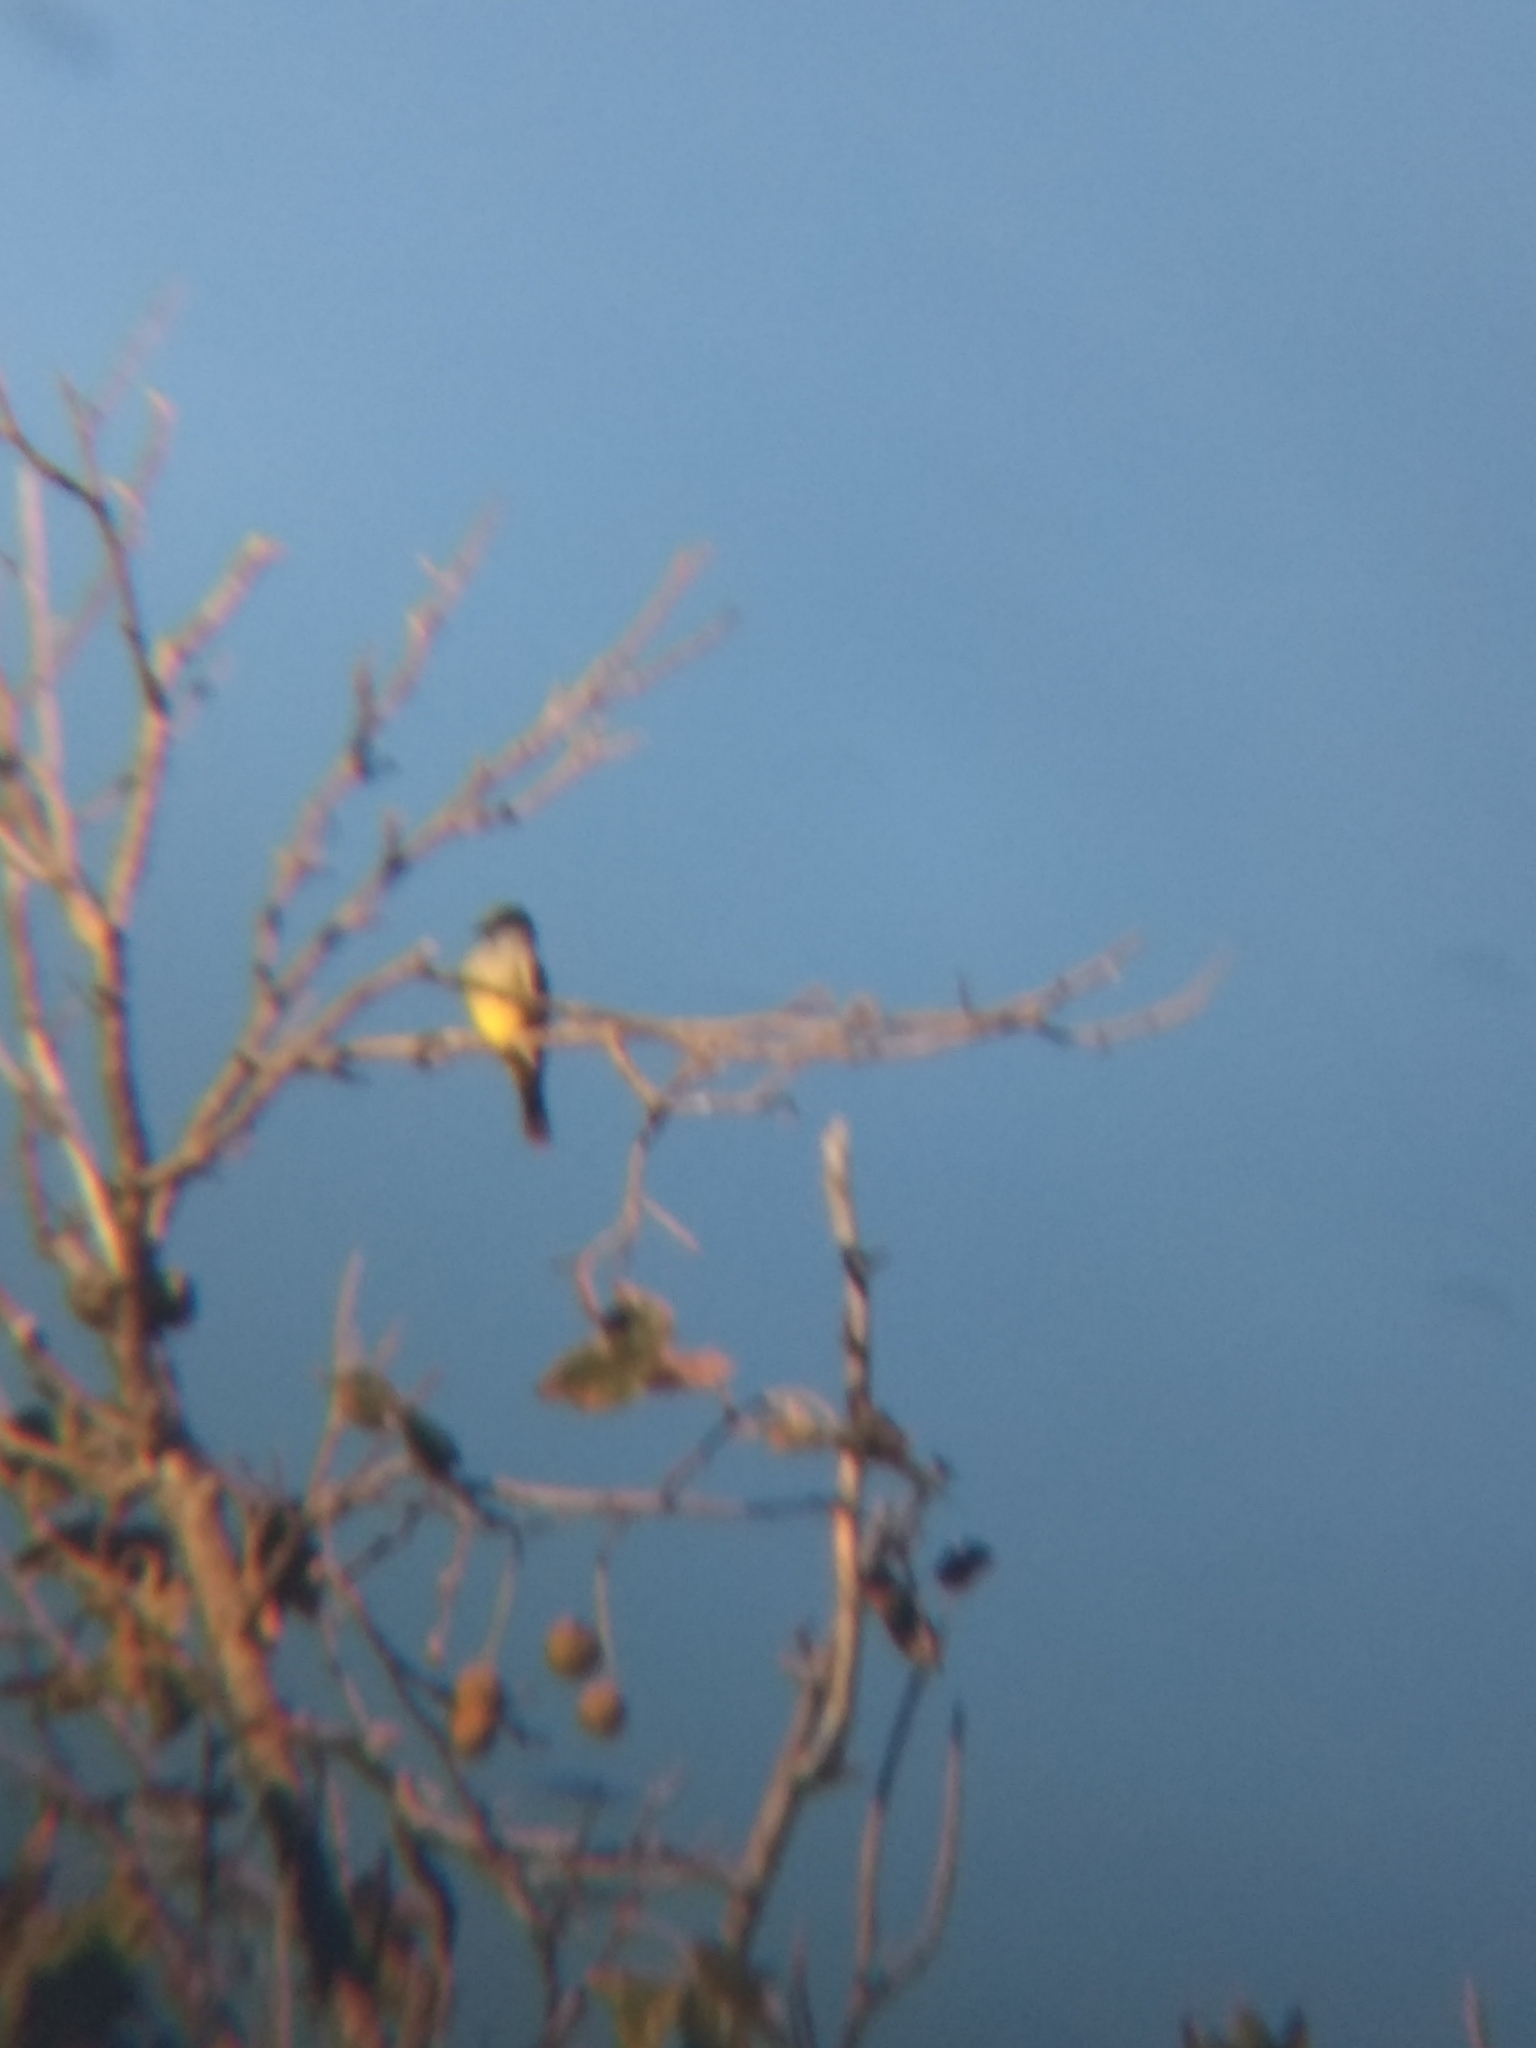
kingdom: Animalia
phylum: Chordata
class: Aves
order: Passeriformes
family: Tyrannidae
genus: Tyrannus
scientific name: Tyrannus vociferans
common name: Cassin's kingbird
